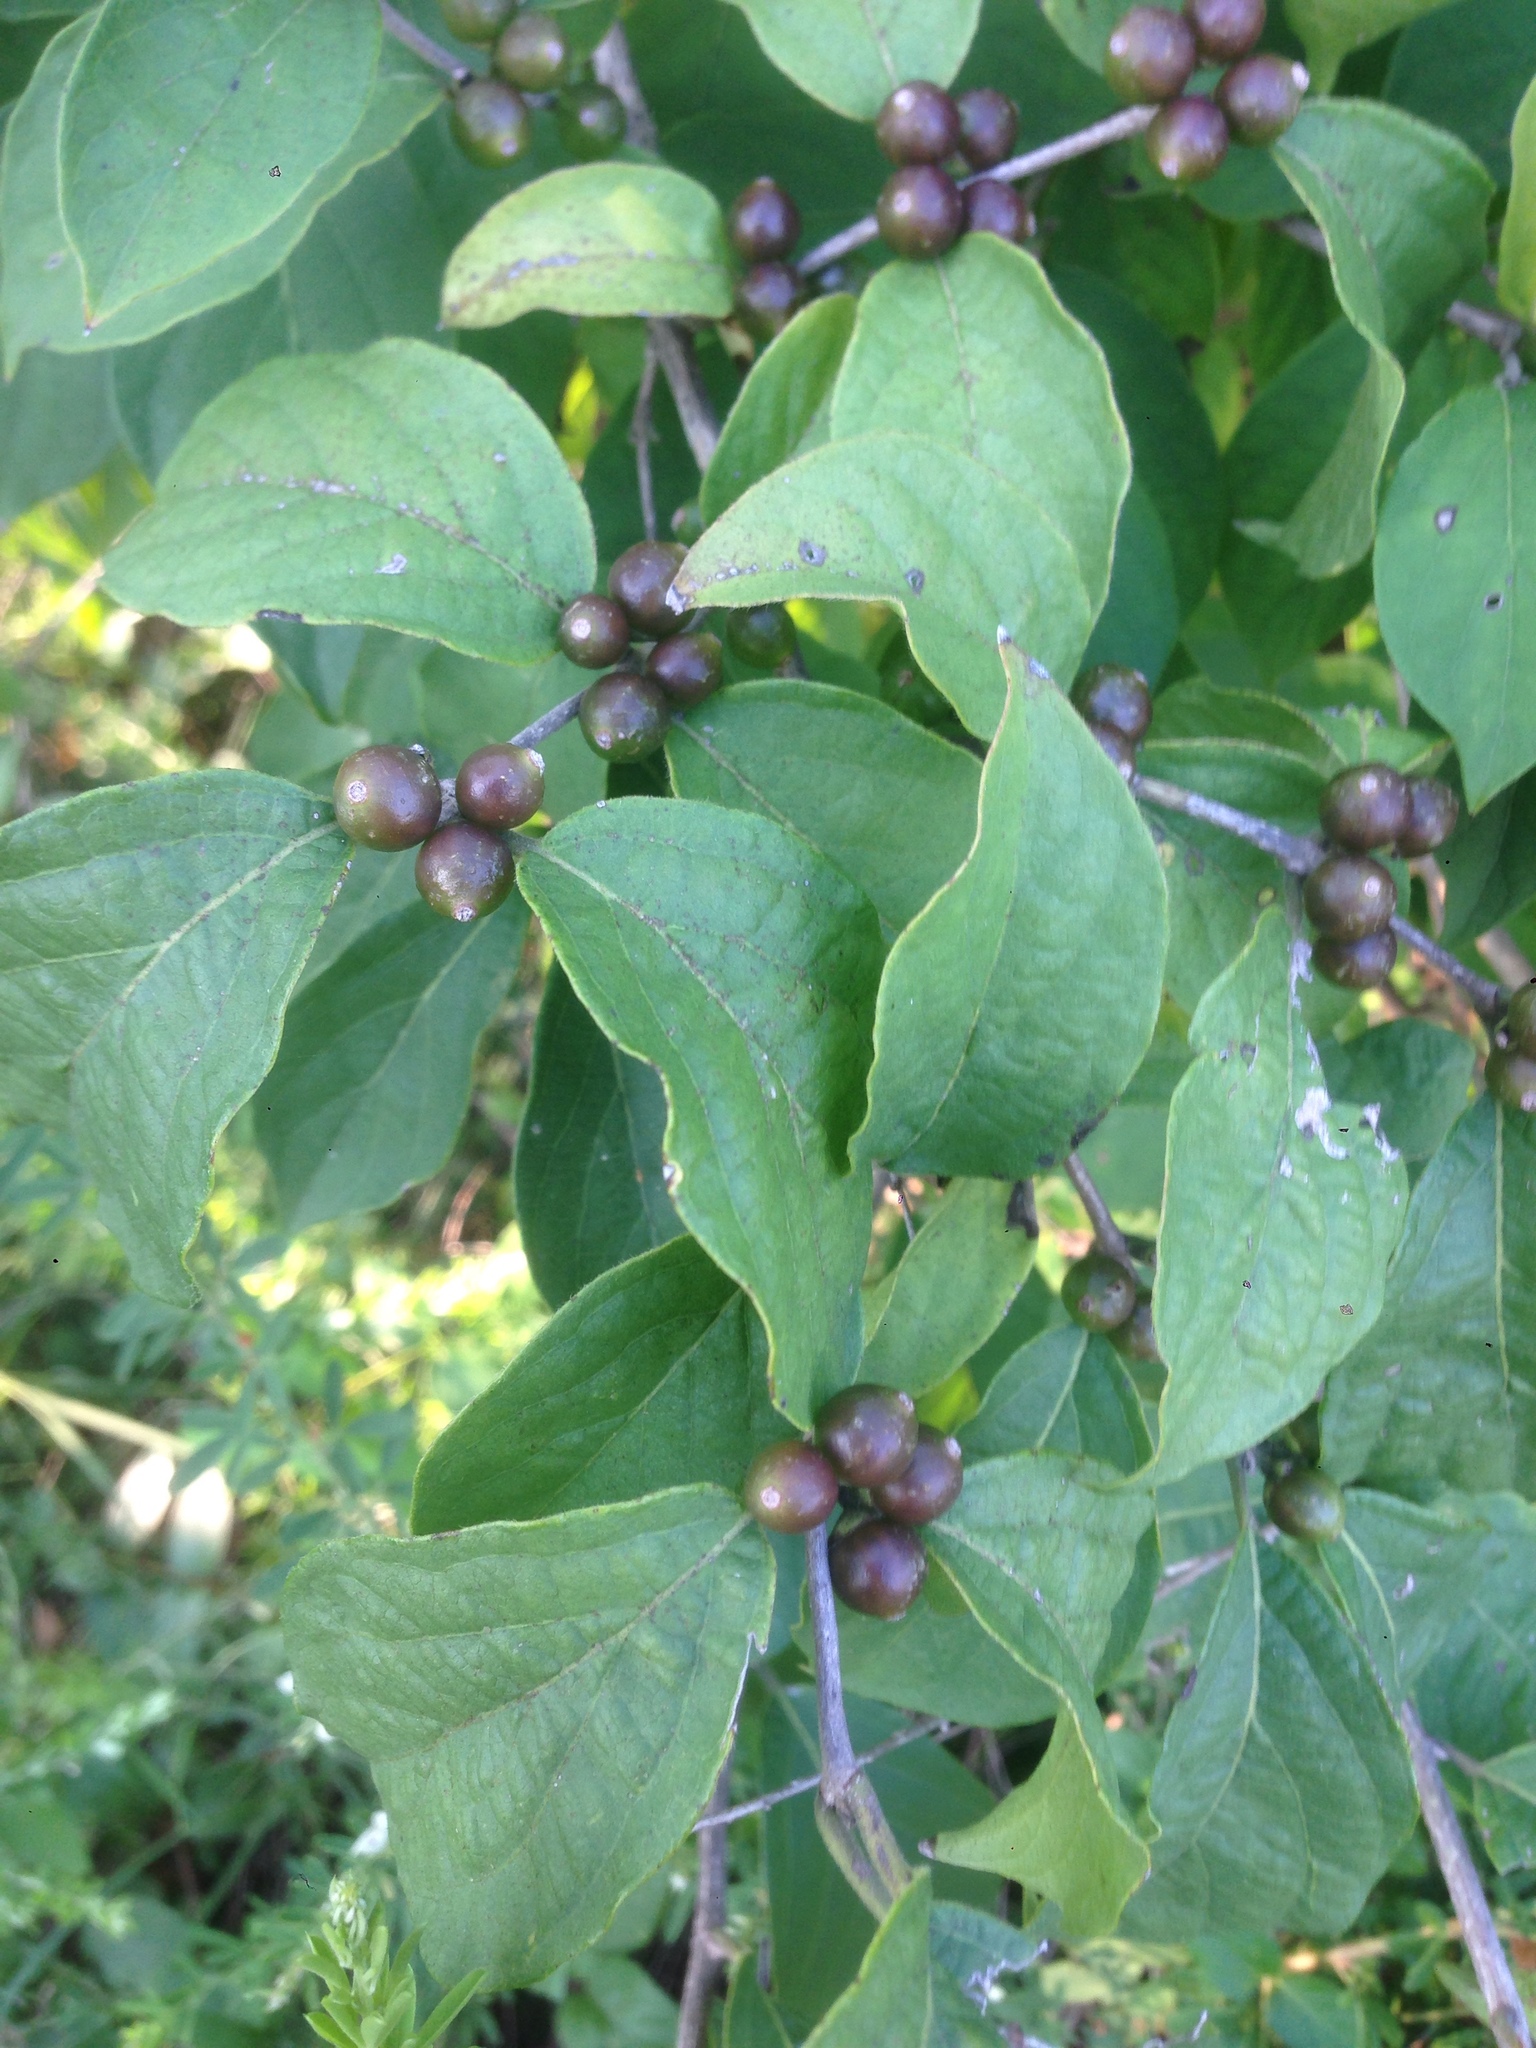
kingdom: Plantae
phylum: Tracheophyta
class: Magnoliopsida
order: Dipsacales
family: Caprifoliaceae
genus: Lonicera
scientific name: Lonicera maackii
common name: Amur honeysuckle
